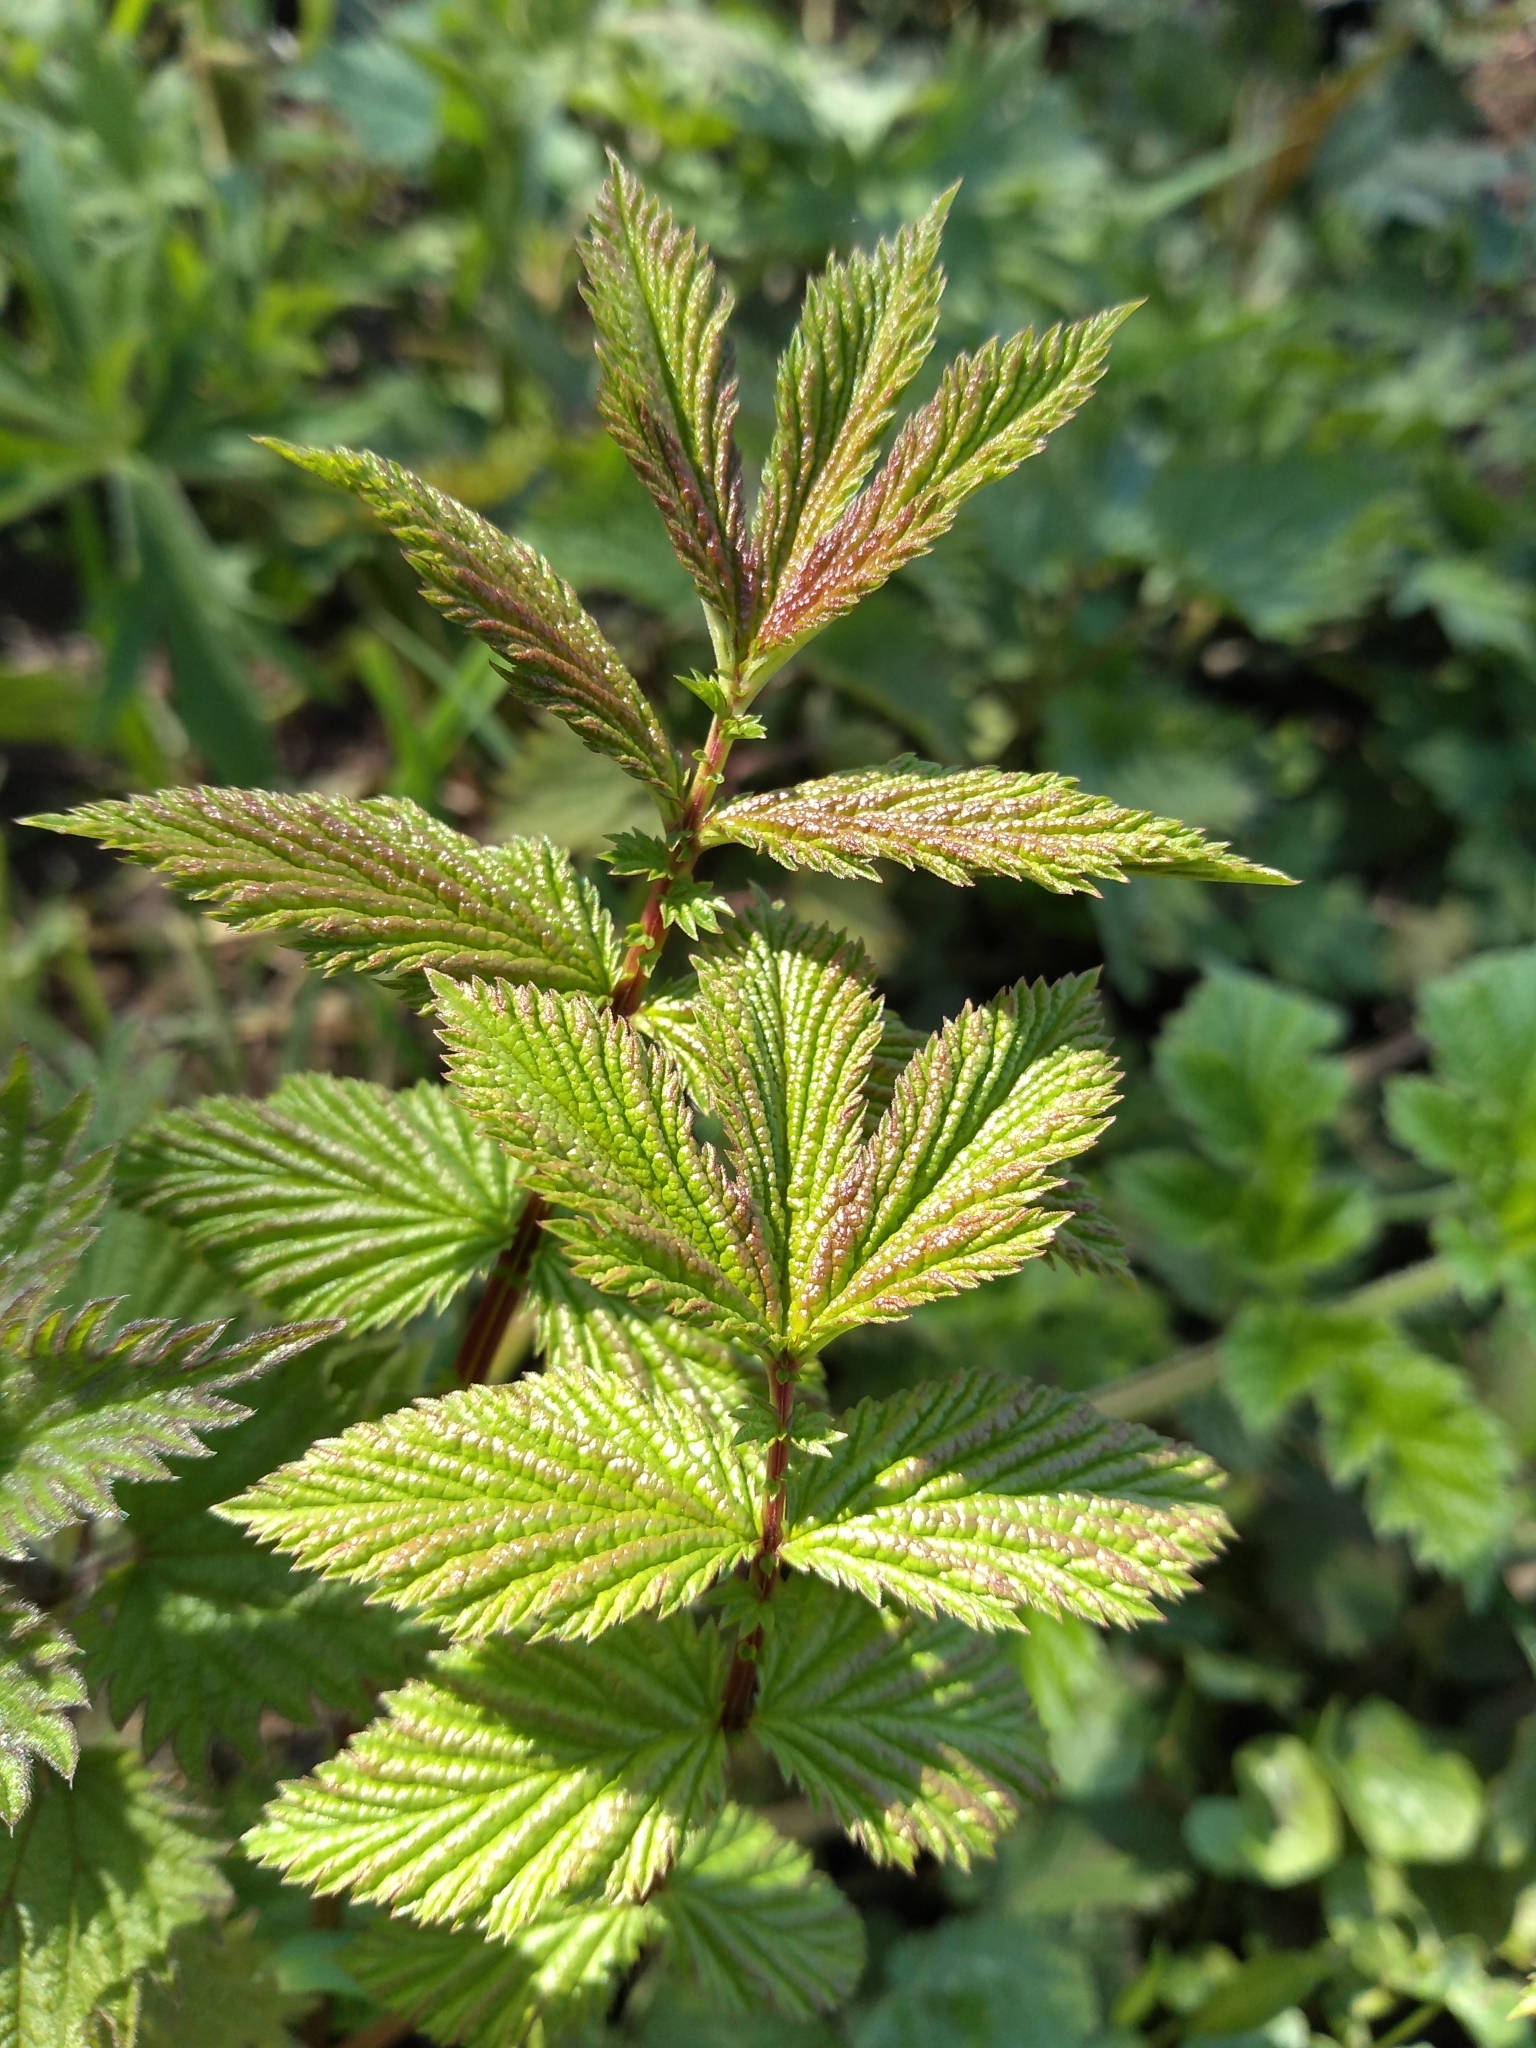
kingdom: Plantae
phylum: Tracheophyta
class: Magnoliopsida
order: Rosales
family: Rosaceae
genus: Filipendula
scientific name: Filipendula ulmaria
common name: Meadowsweet
